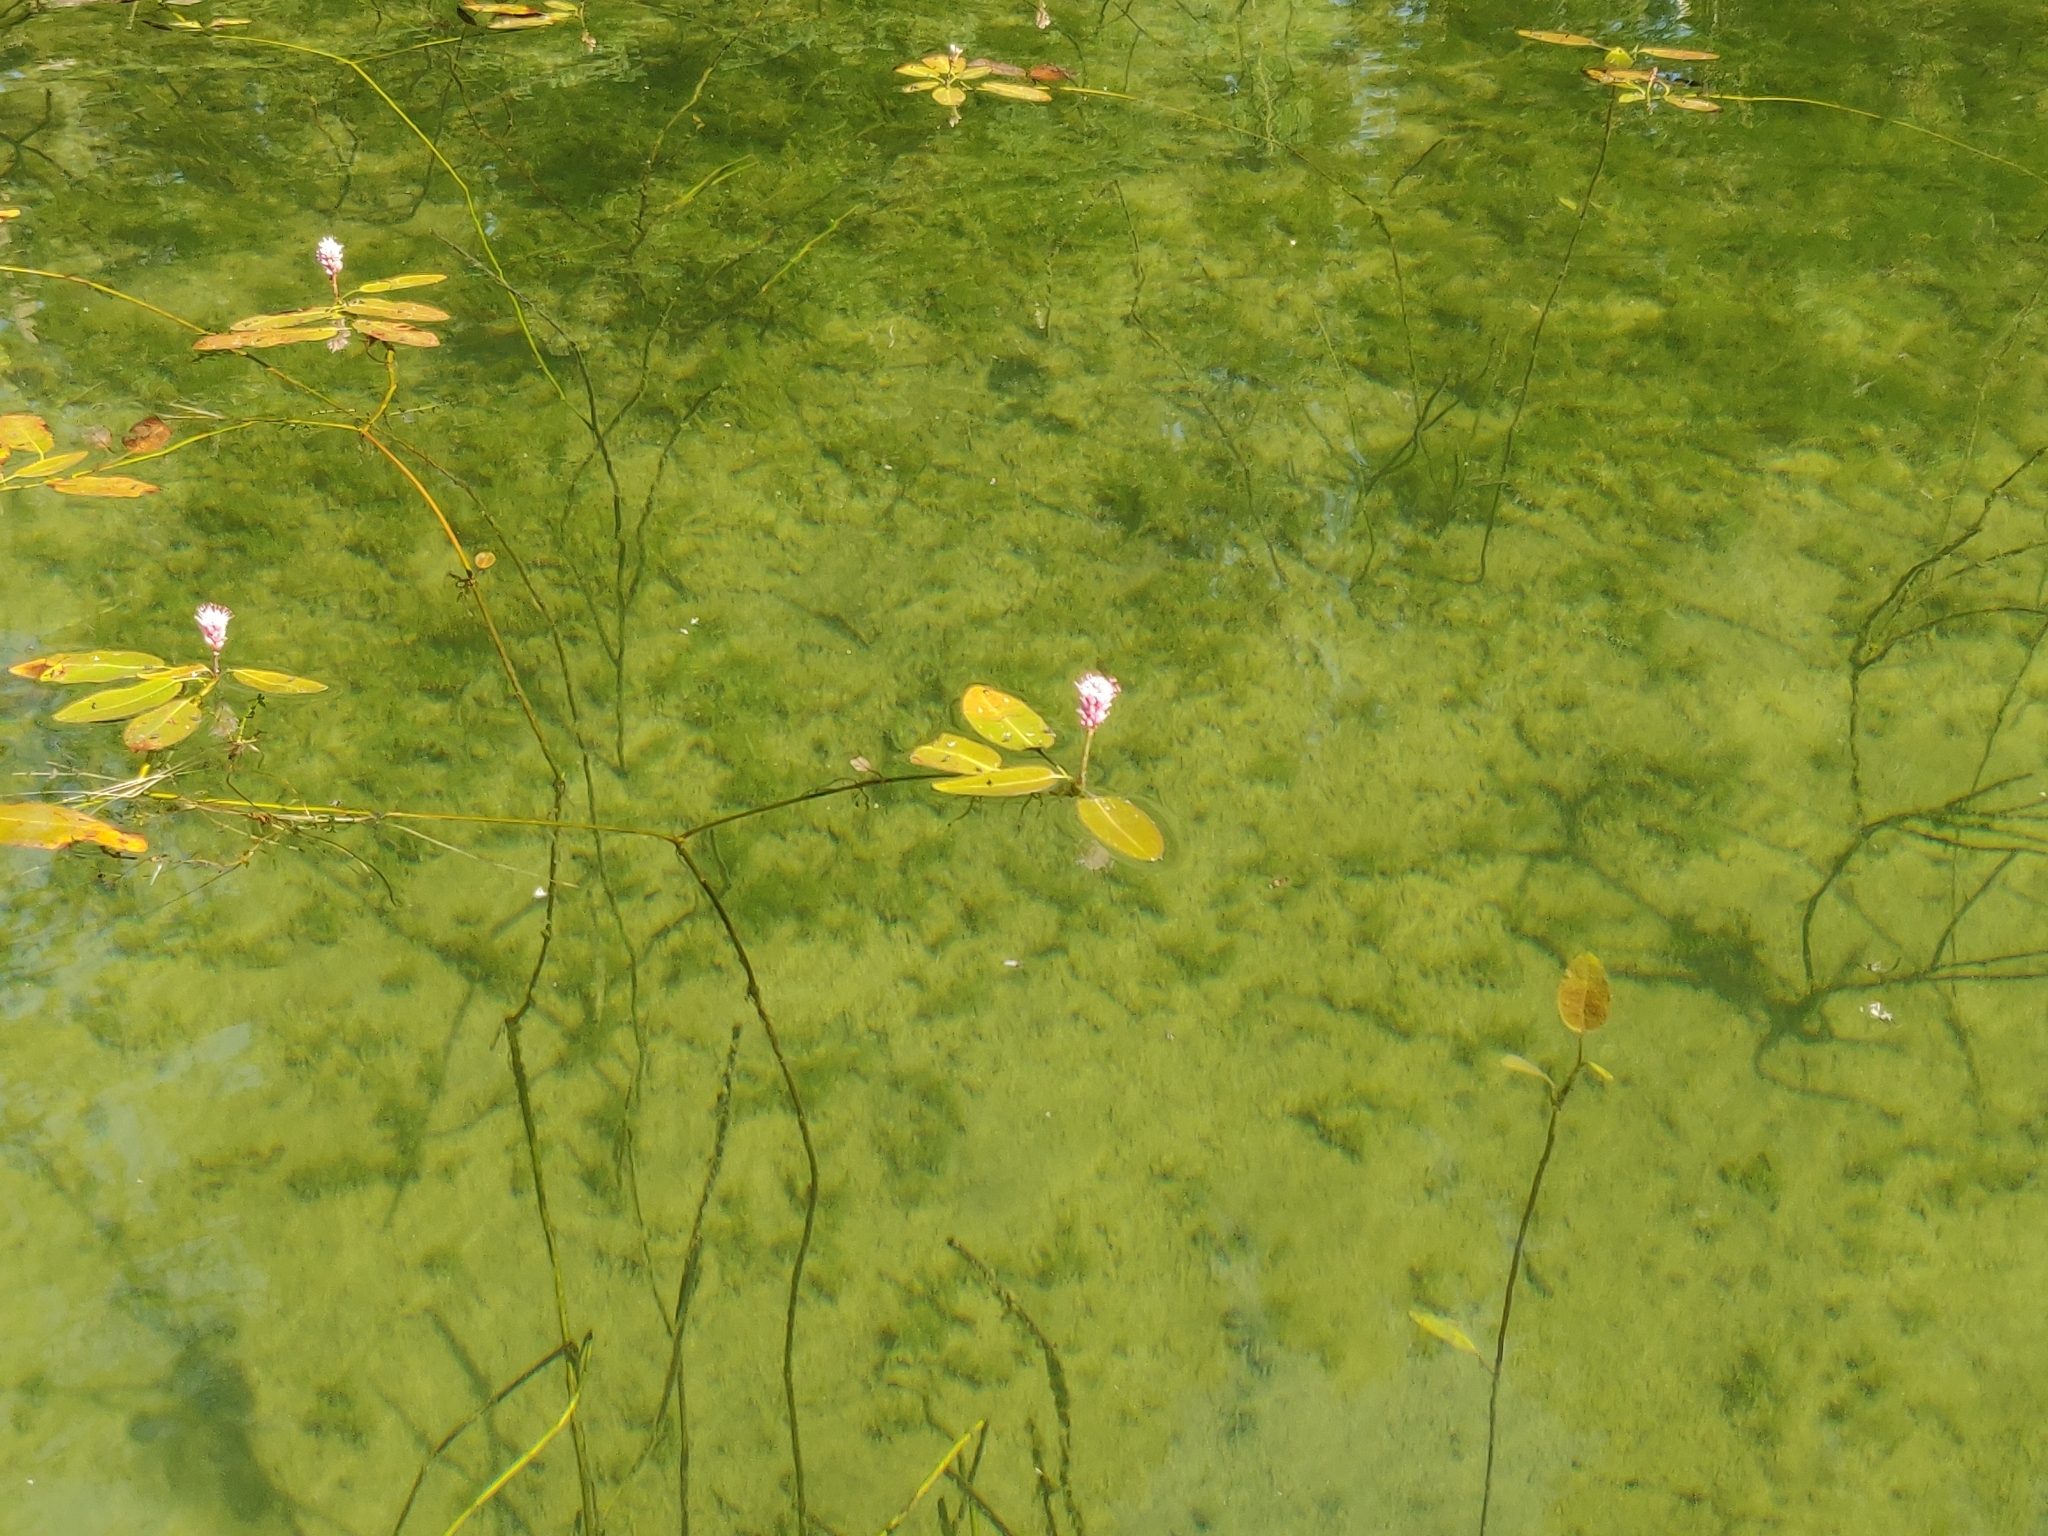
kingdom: Plantae
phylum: Tracheophyta
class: Magnoliopsida
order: Caryophyllales
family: Polygonaceae
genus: Persicaria
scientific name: Persicaria amphibia
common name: Amphibious bistort
